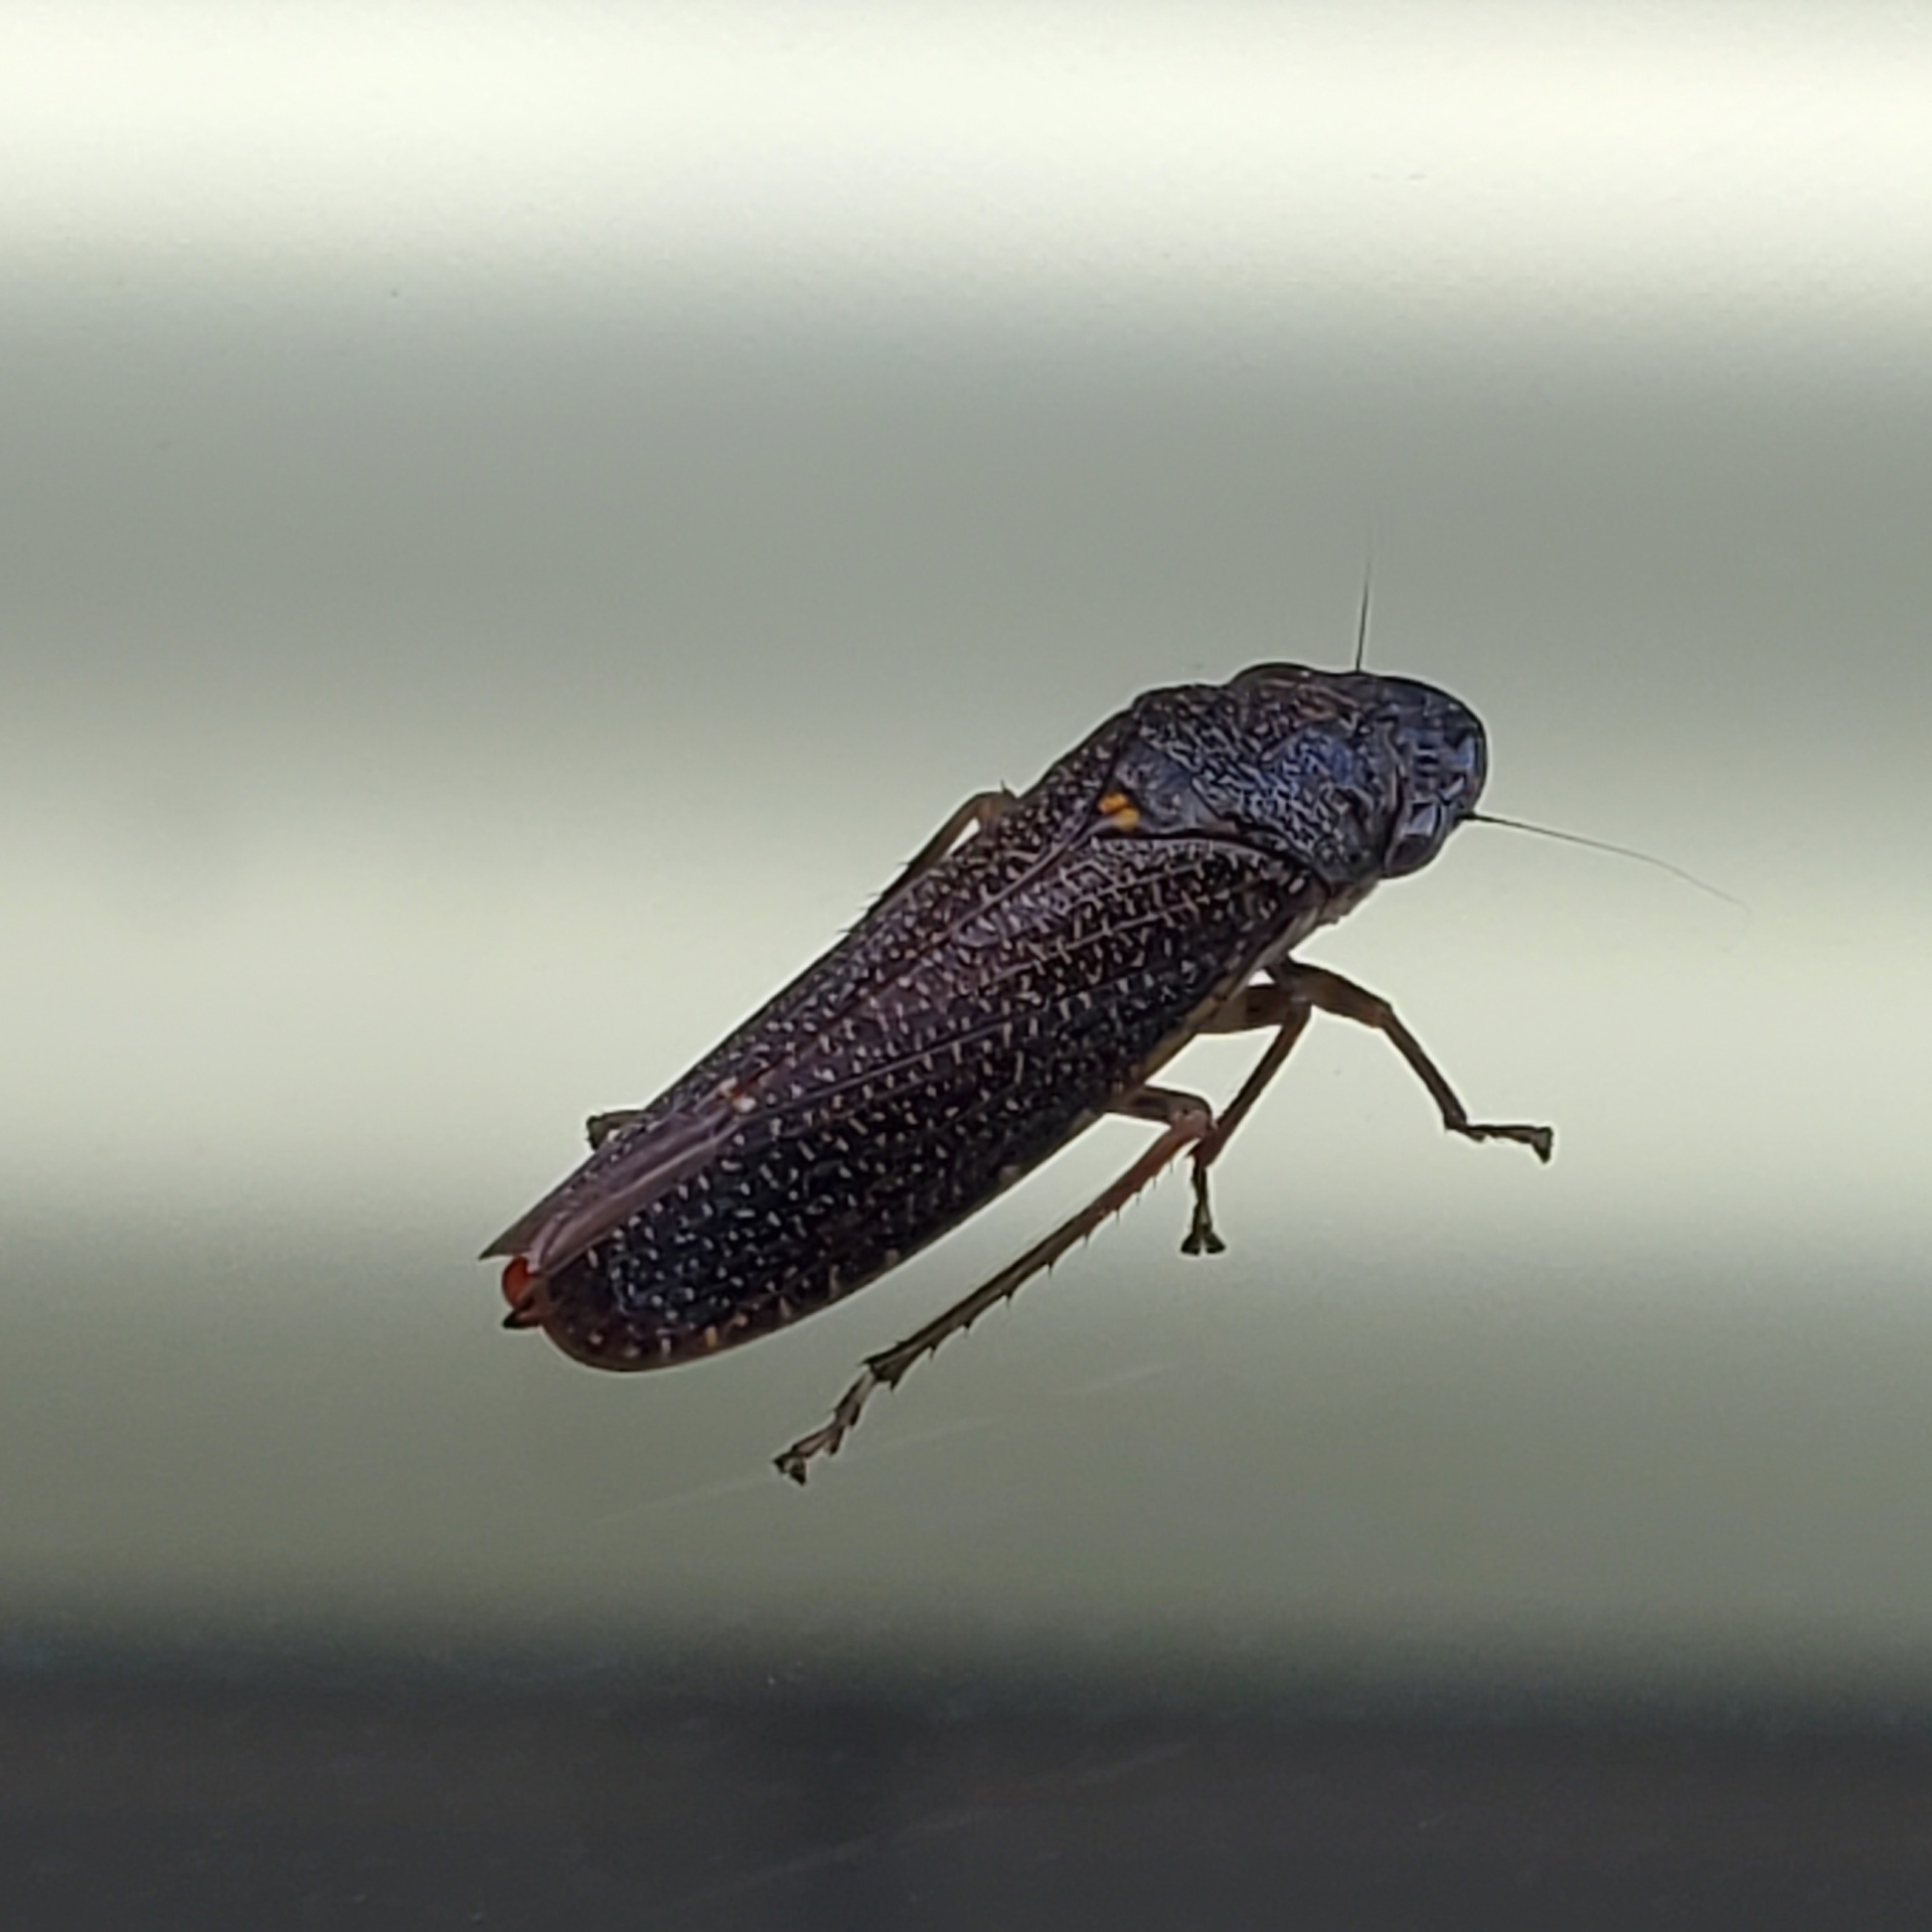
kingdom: Animalia
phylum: Arthropoda
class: Insecta
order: Hemiptera
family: Cicadellidae
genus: Paraulacizes
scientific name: Paraulacizes irrorata
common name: Speckled sharpshooter
